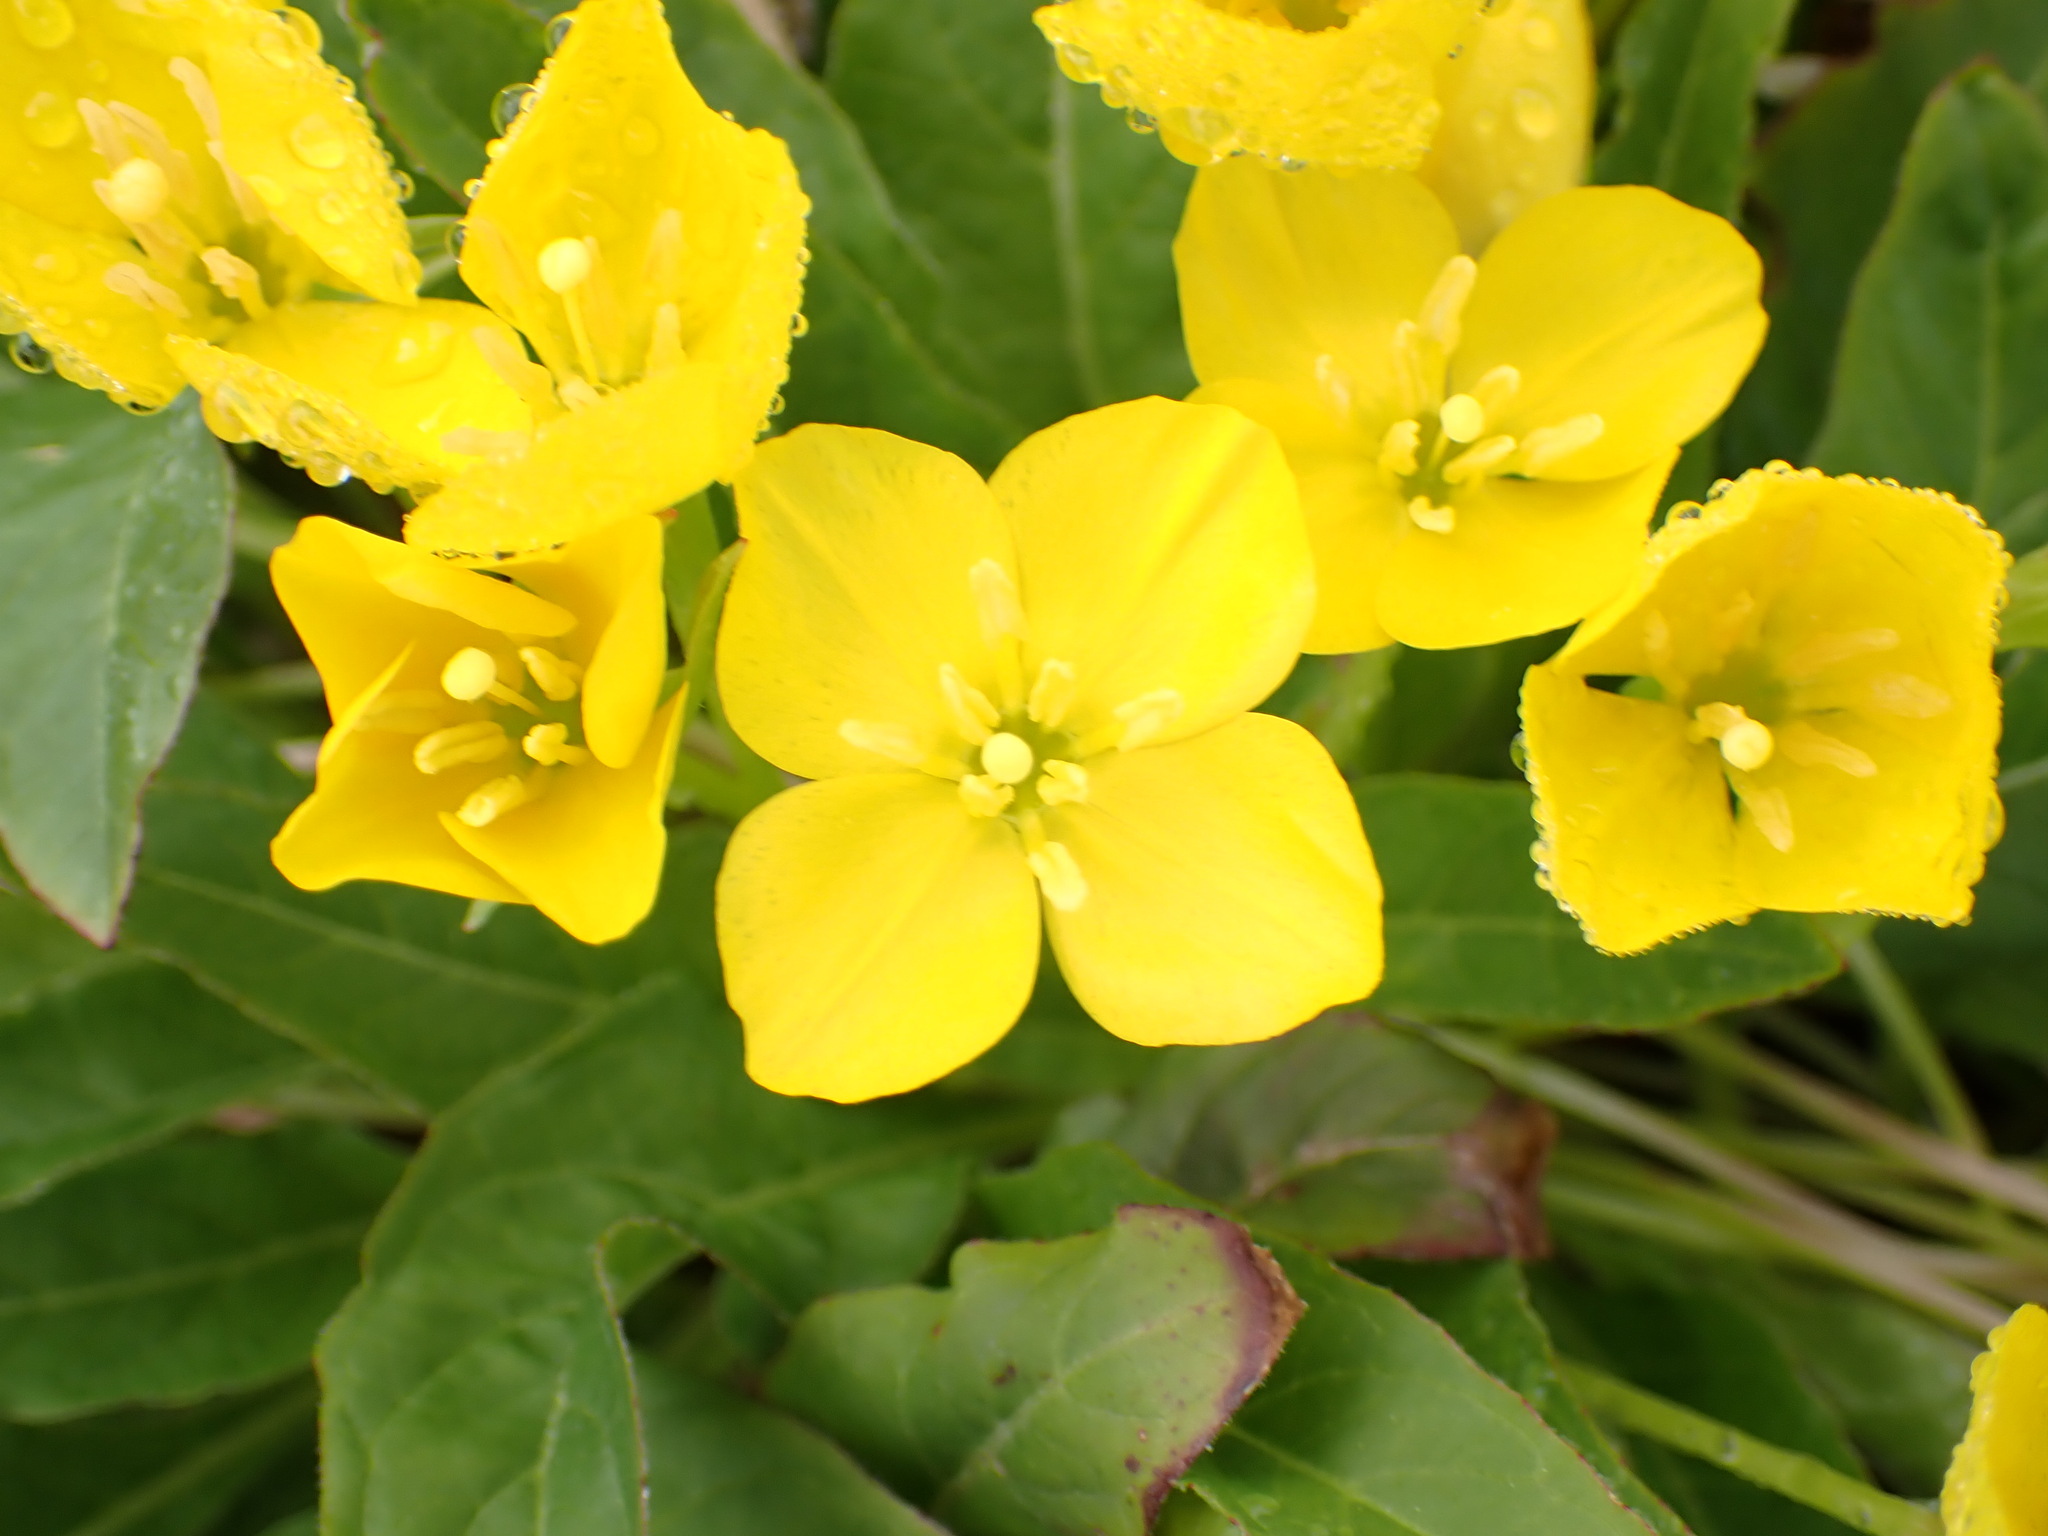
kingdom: Plantae
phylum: Tracheophyta
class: Magnoliopsida
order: Myrtales
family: Onagraceae
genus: Taraxia
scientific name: Taraxia ovata
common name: Goldeneggs
